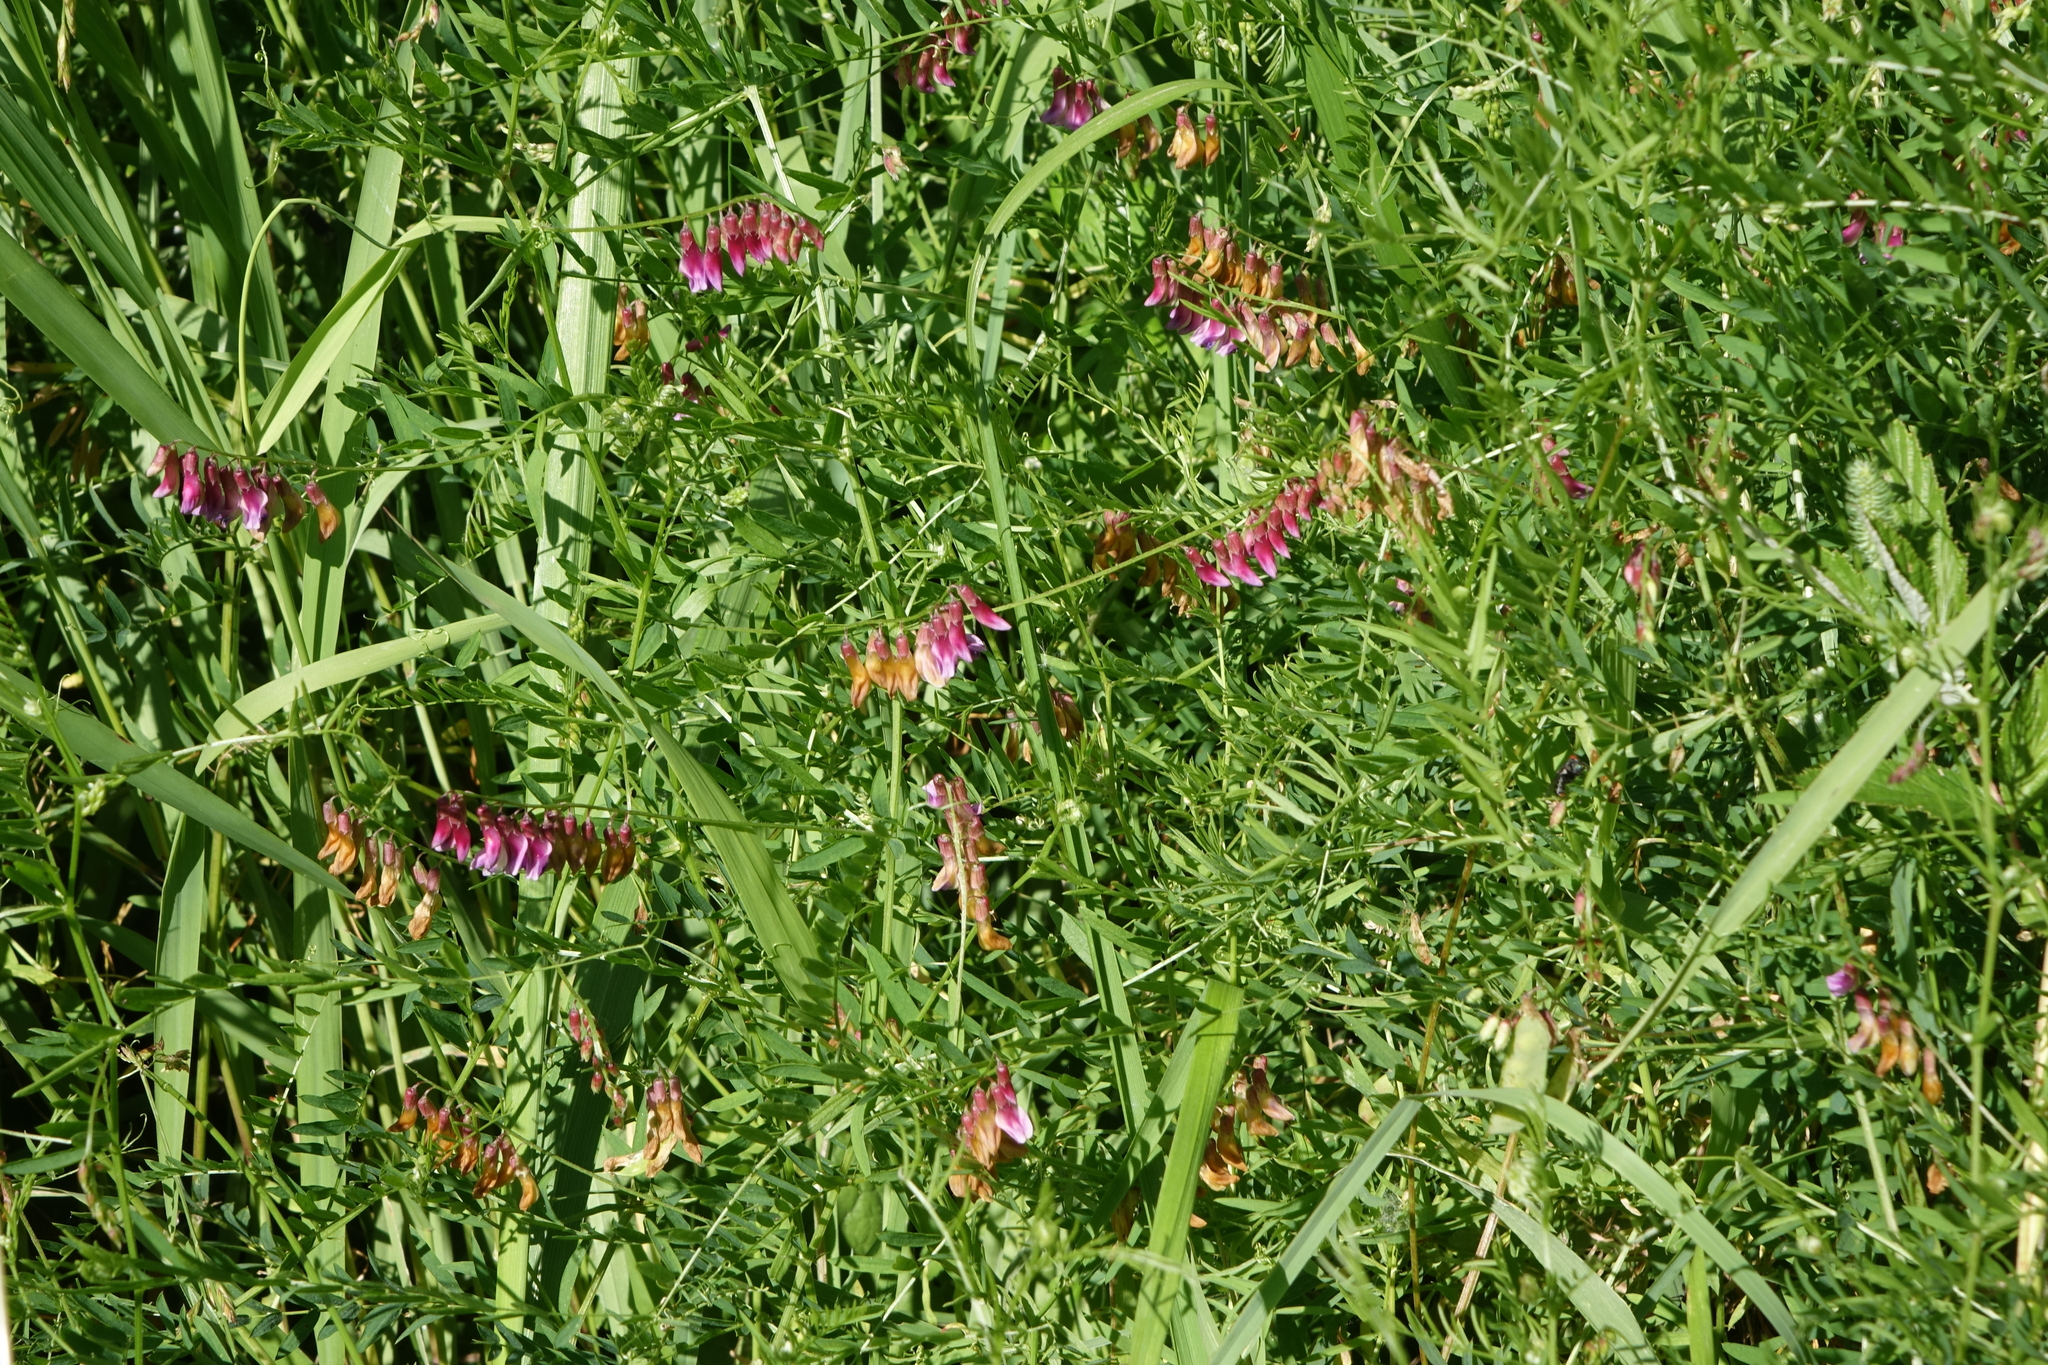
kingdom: Plantae
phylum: Tracheophyta
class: Magnoliopsida
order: Fabales
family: Fabaceae
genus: Vicia
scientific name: Vicia megalotropis
